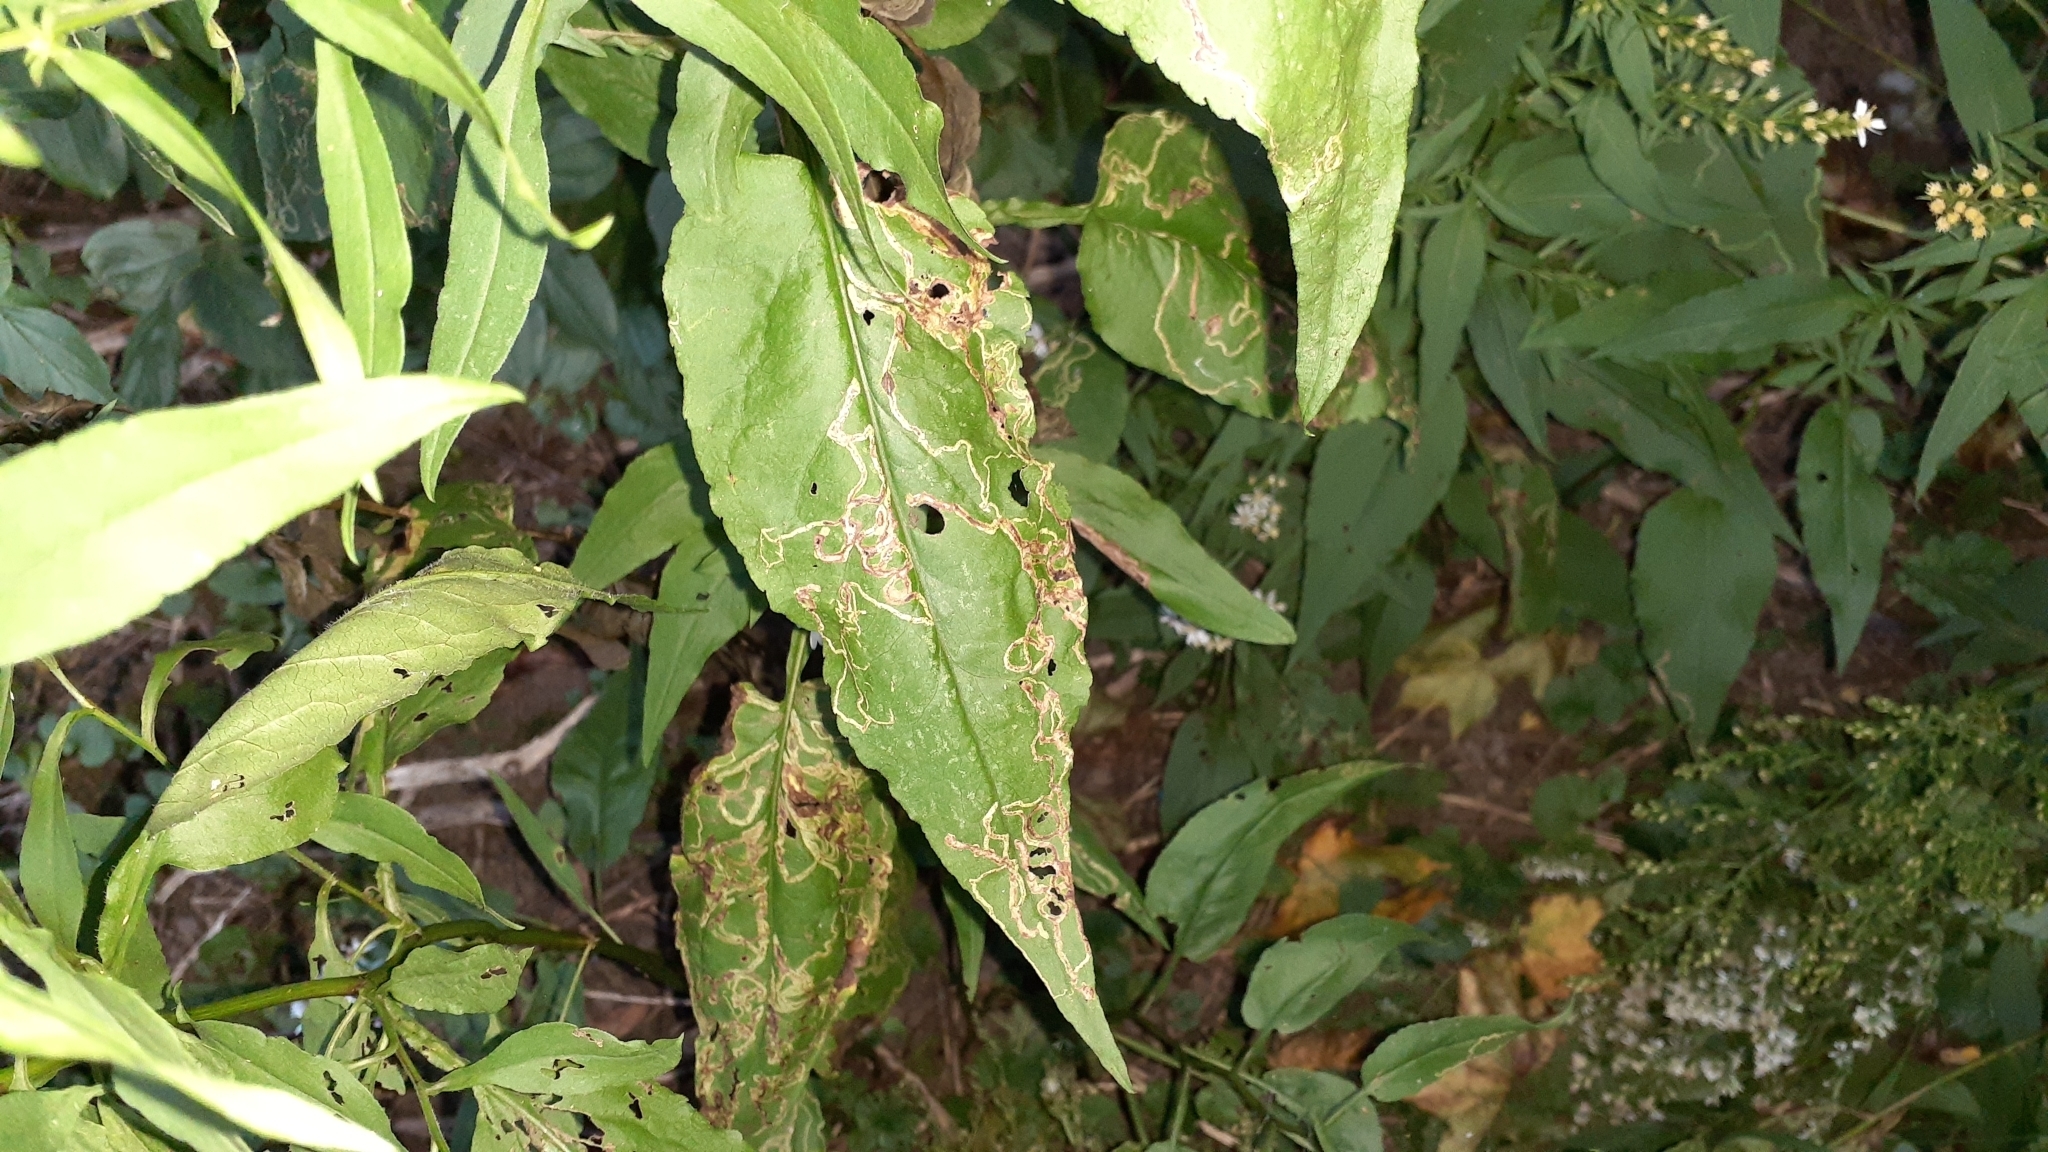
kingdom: Plantae
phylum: Tracheophyta
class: Magnoliopsida
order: Asterales
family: Asteraceae
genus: Symphyotrichum
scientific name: Symphyotrichum urophyllum
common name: Arrow-leaved aster
